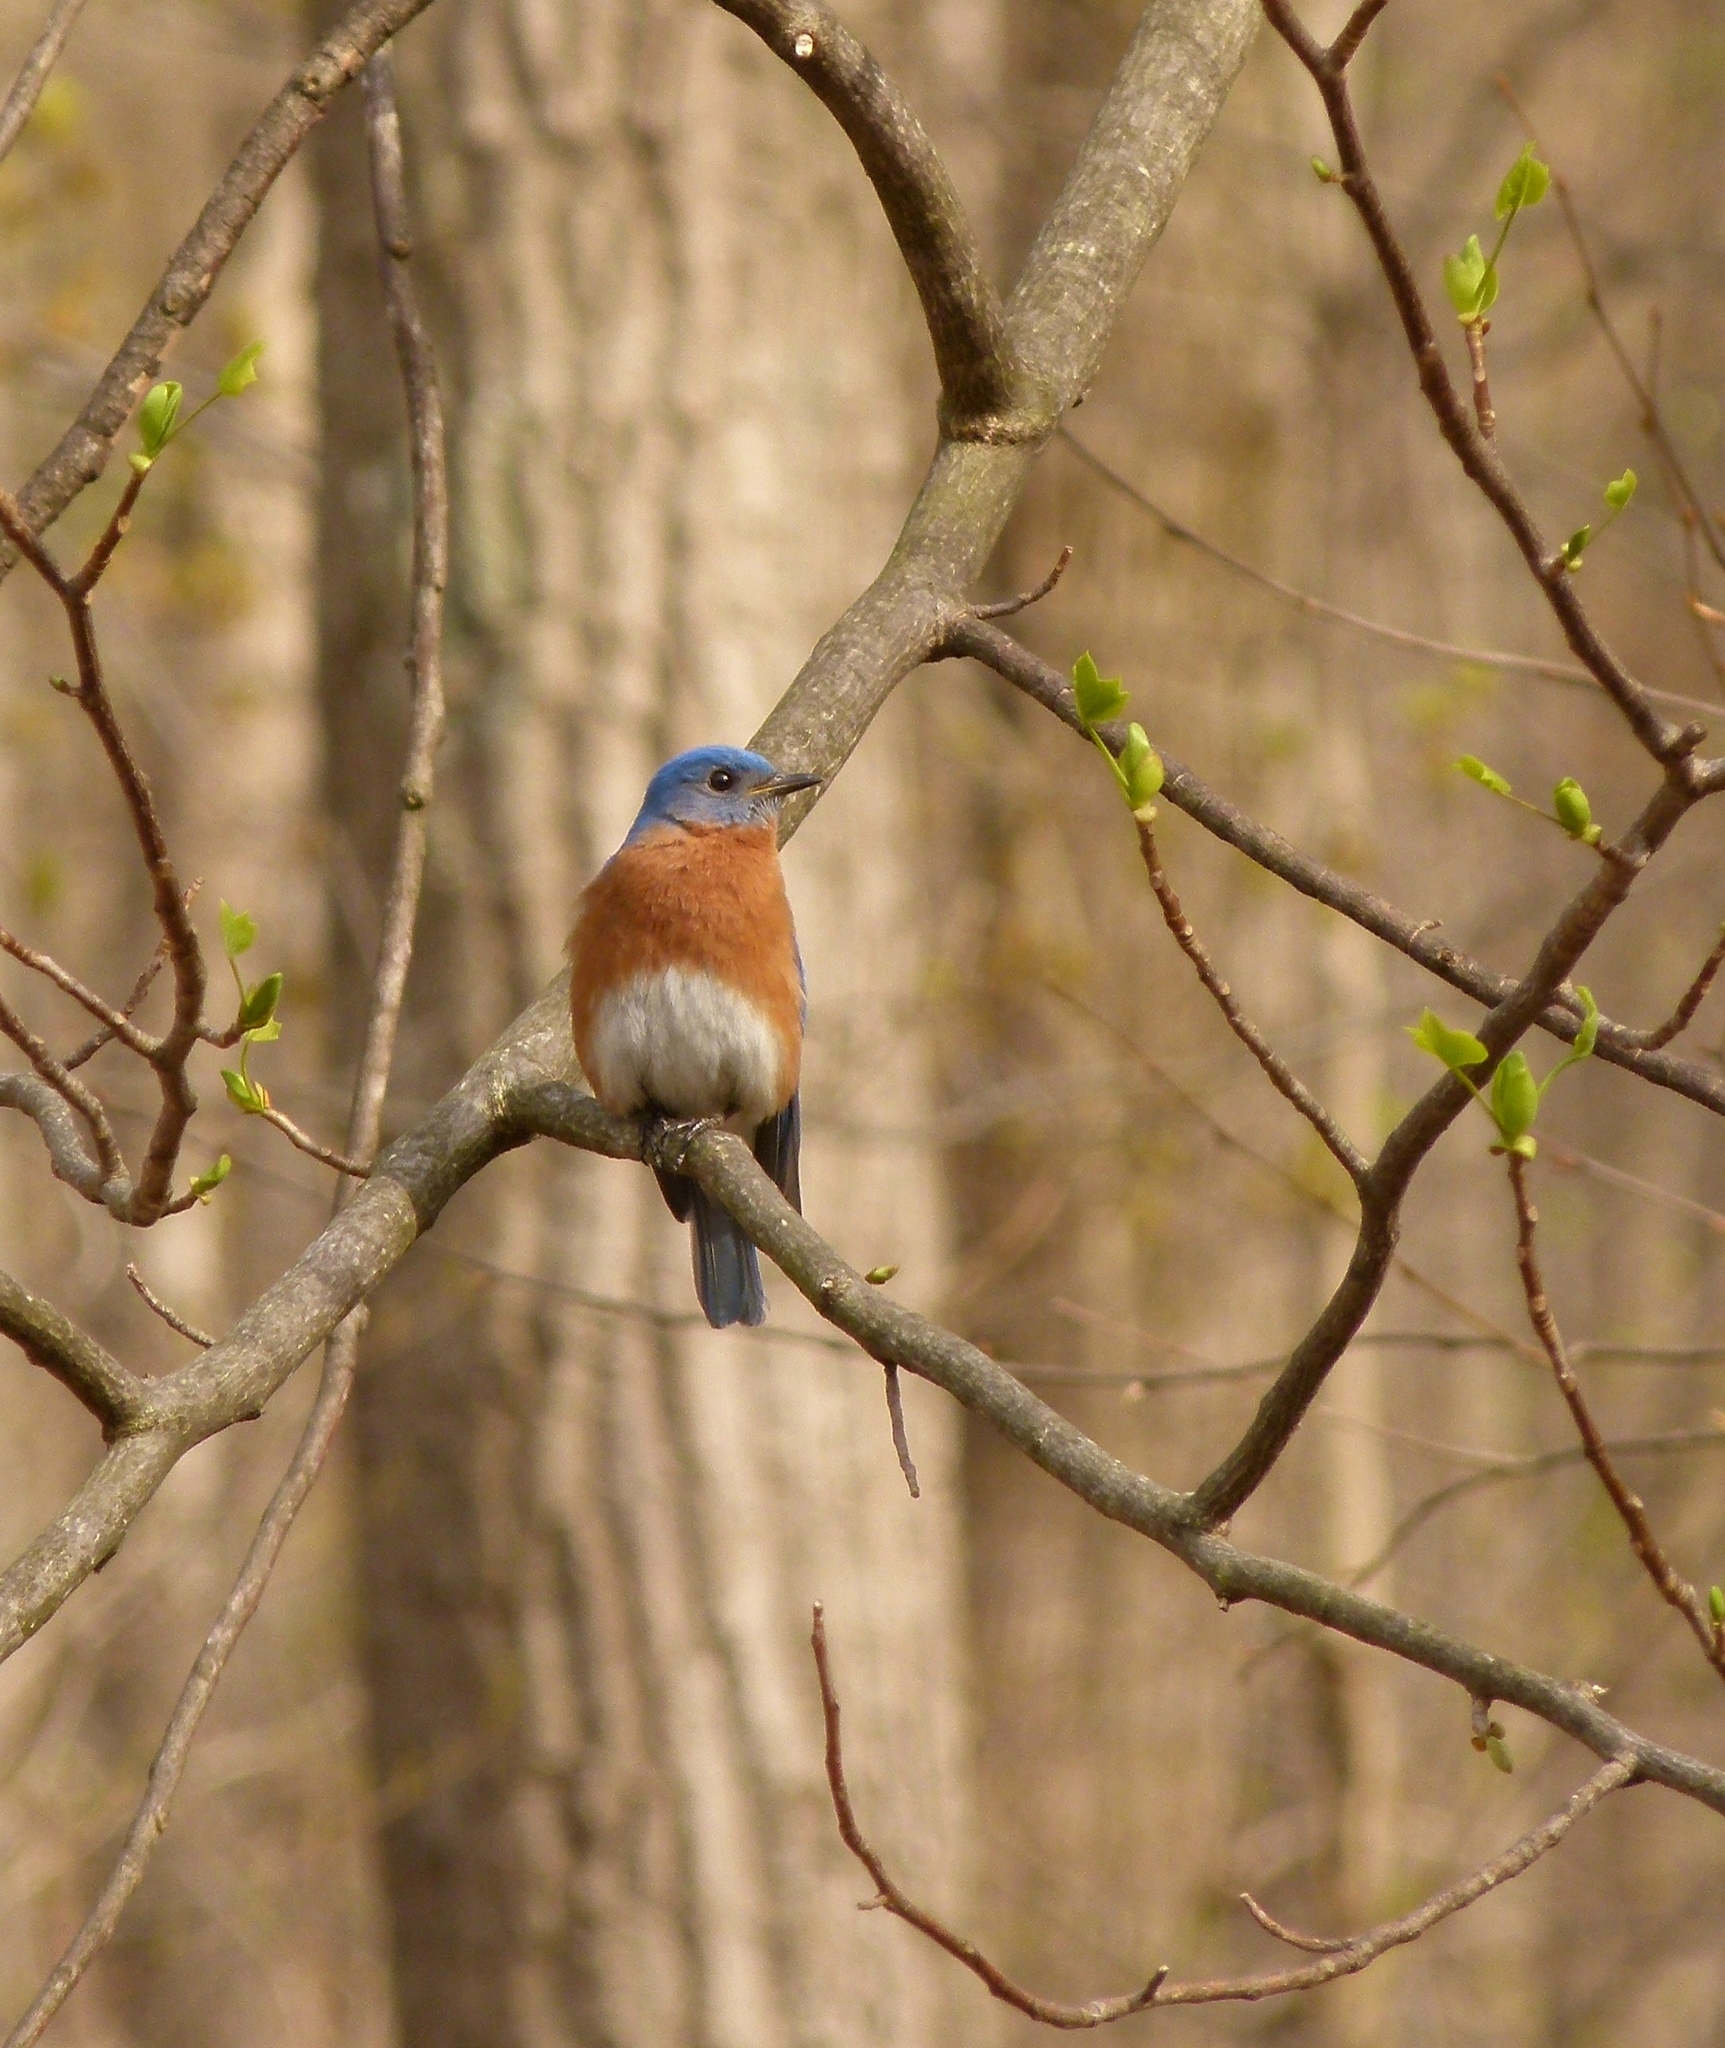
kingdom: Animalia
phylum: Chordata
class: Aves
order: Passeriformes
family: Turdidae
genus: Sialia
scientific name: Sialia sialis
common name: Eastern bluebird
